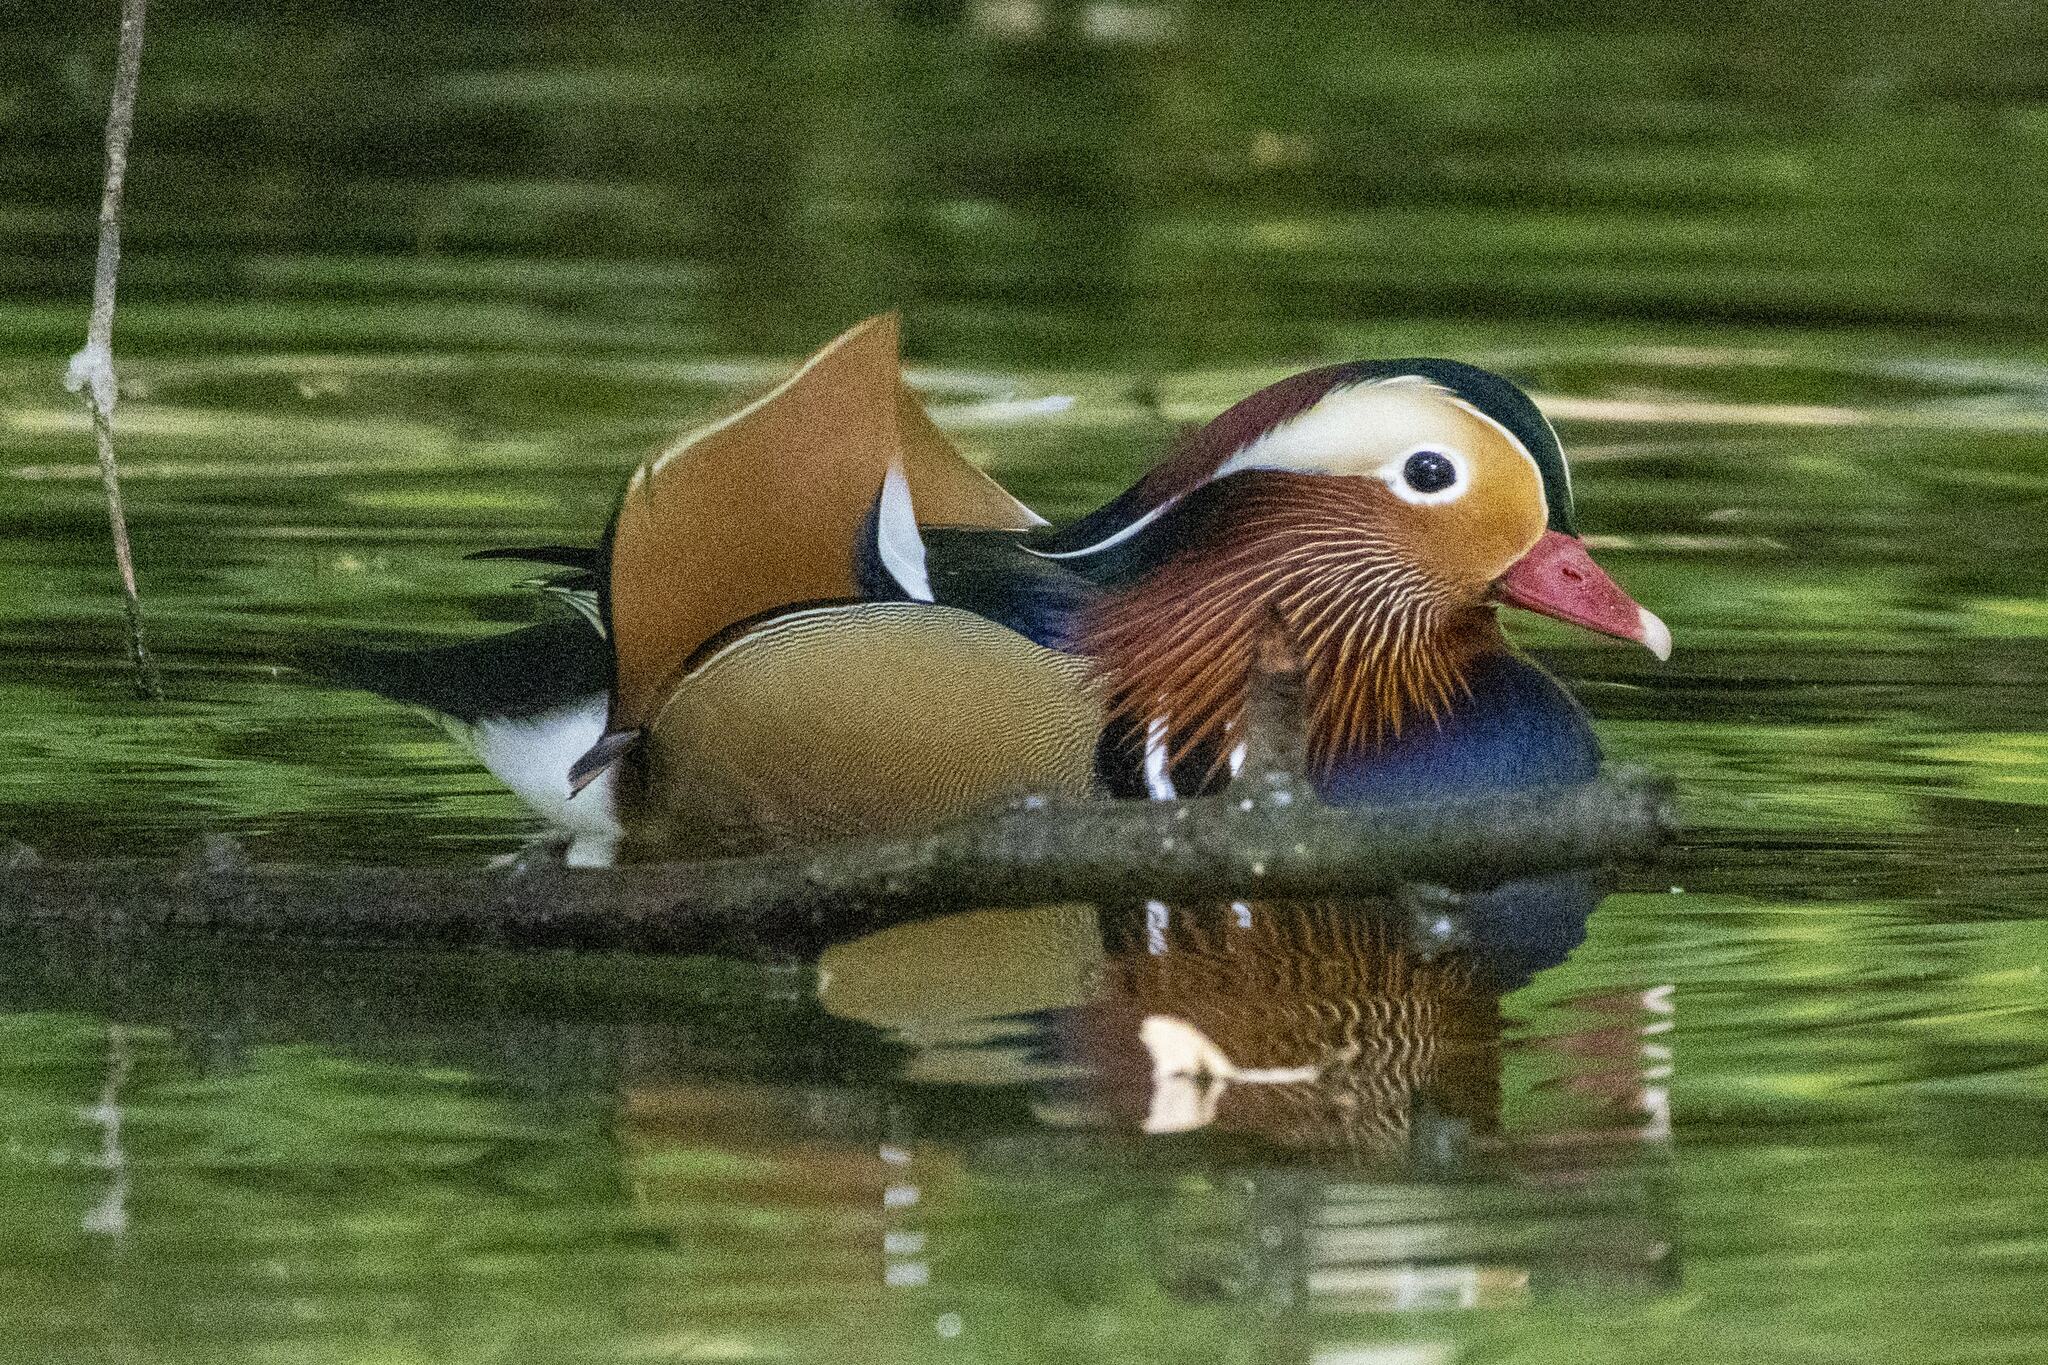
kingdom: Animalia
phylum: Chordata
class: Aves
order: Anseriformes
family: Anatidae
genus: Aix
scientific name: Aix galericulata
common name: Mandarin duck
